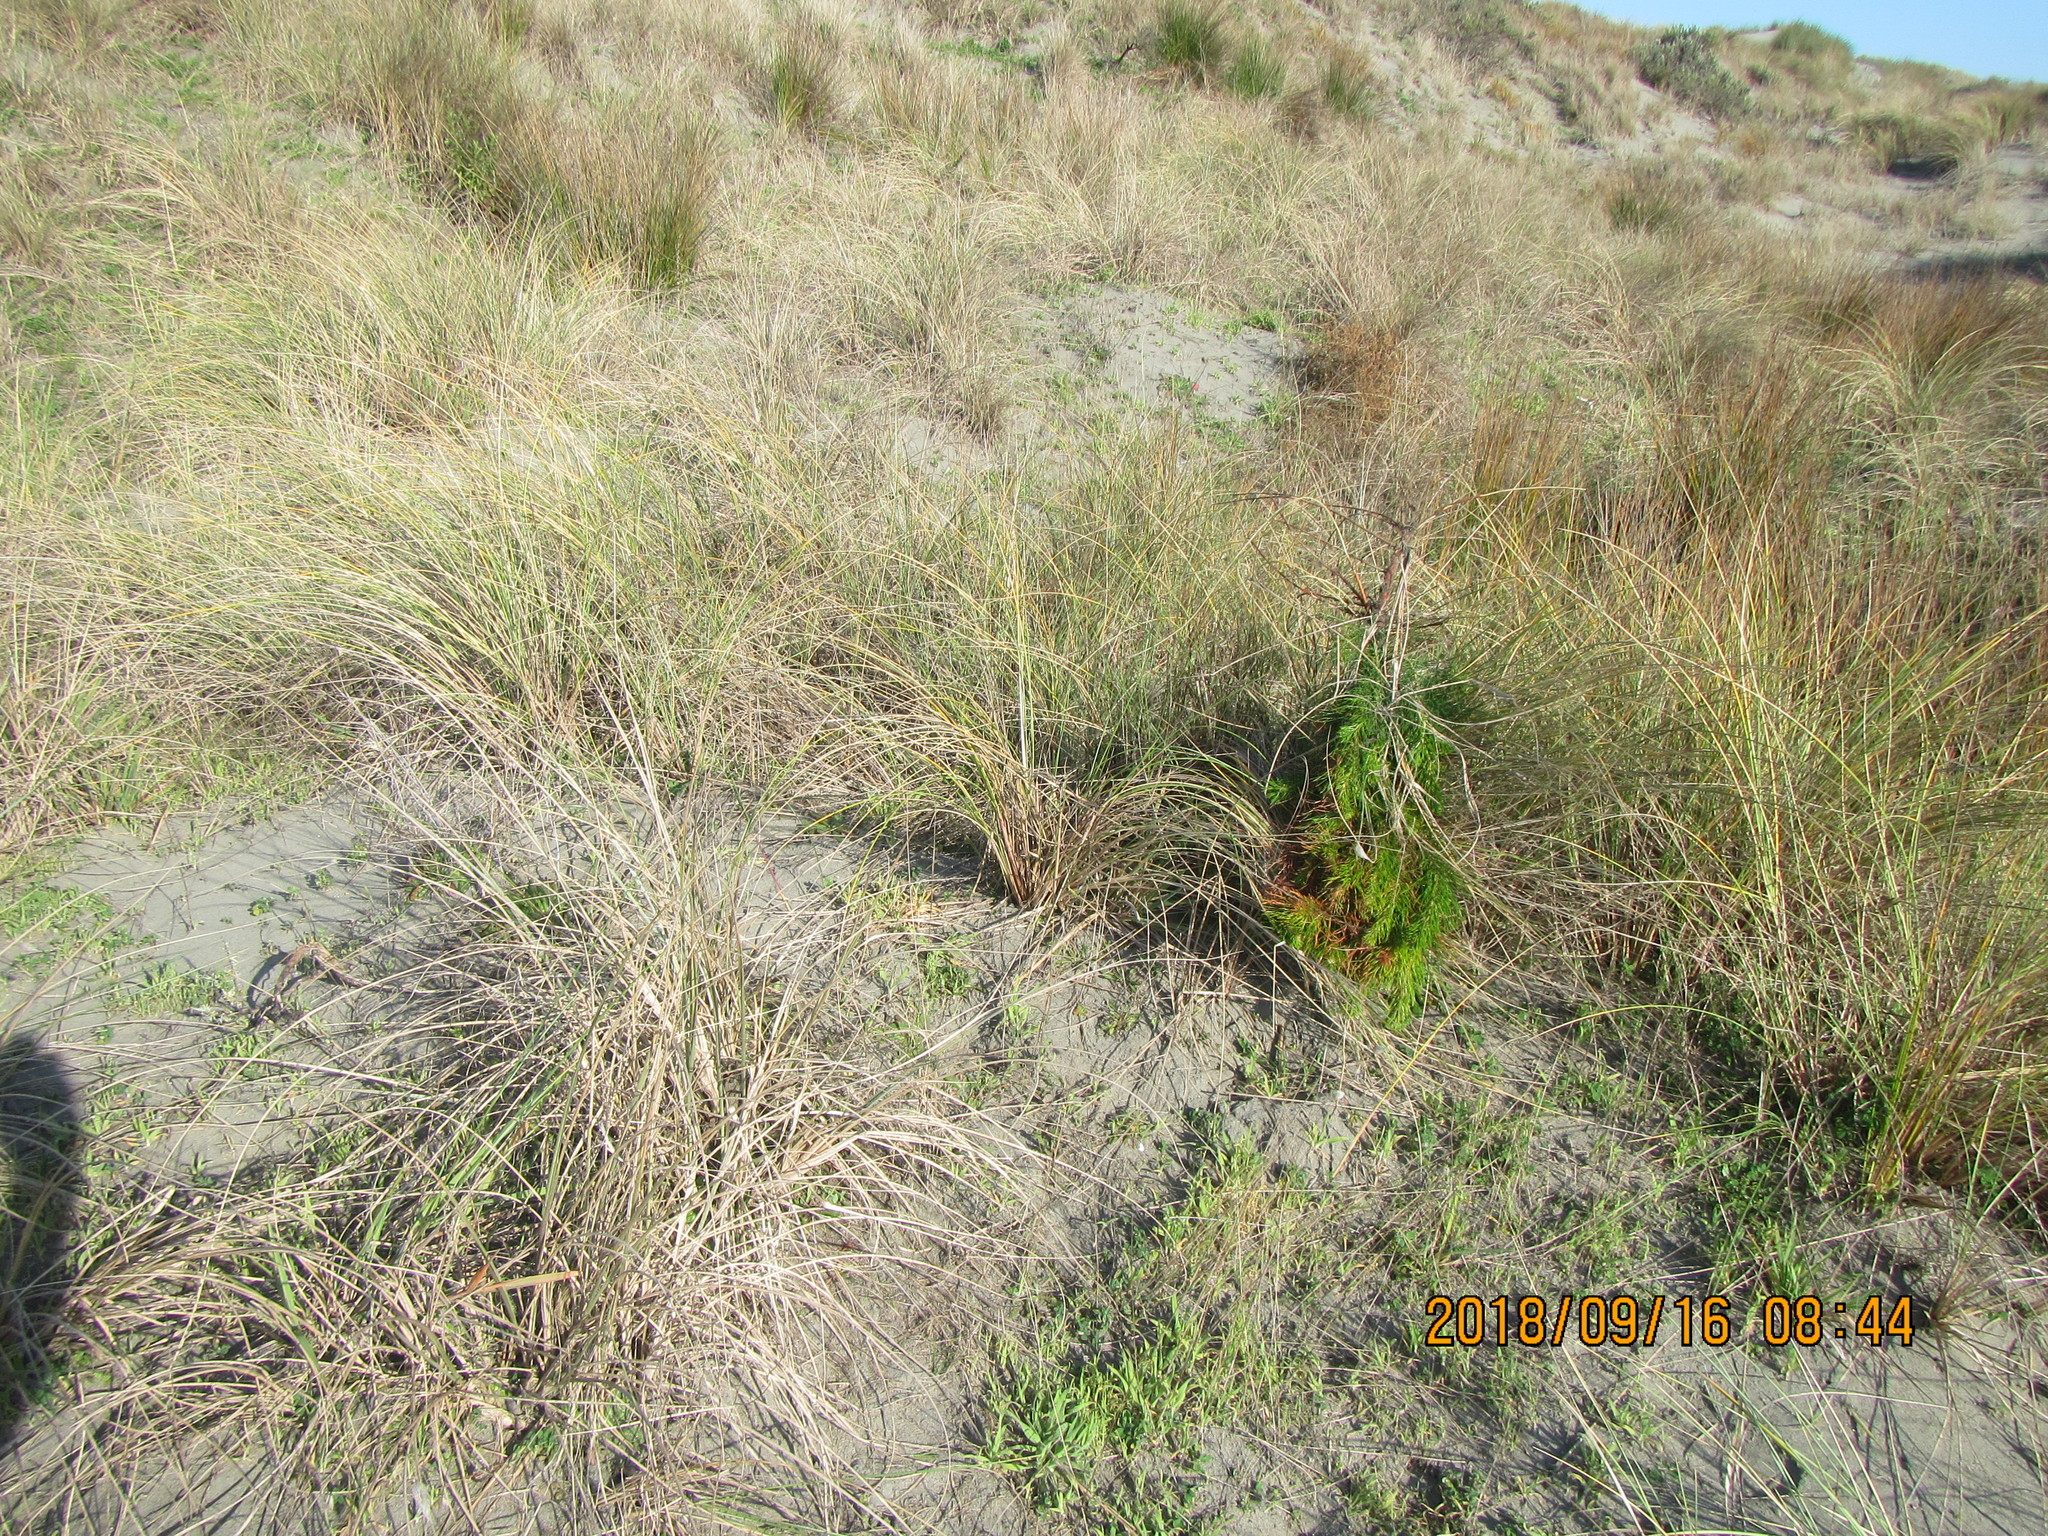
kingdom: Plantae
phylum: Tracheophyta
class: Pinopsida
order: Pinales
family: Pinaceae
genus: Pinus
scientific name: Pinus radiata
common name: Monterey pine
